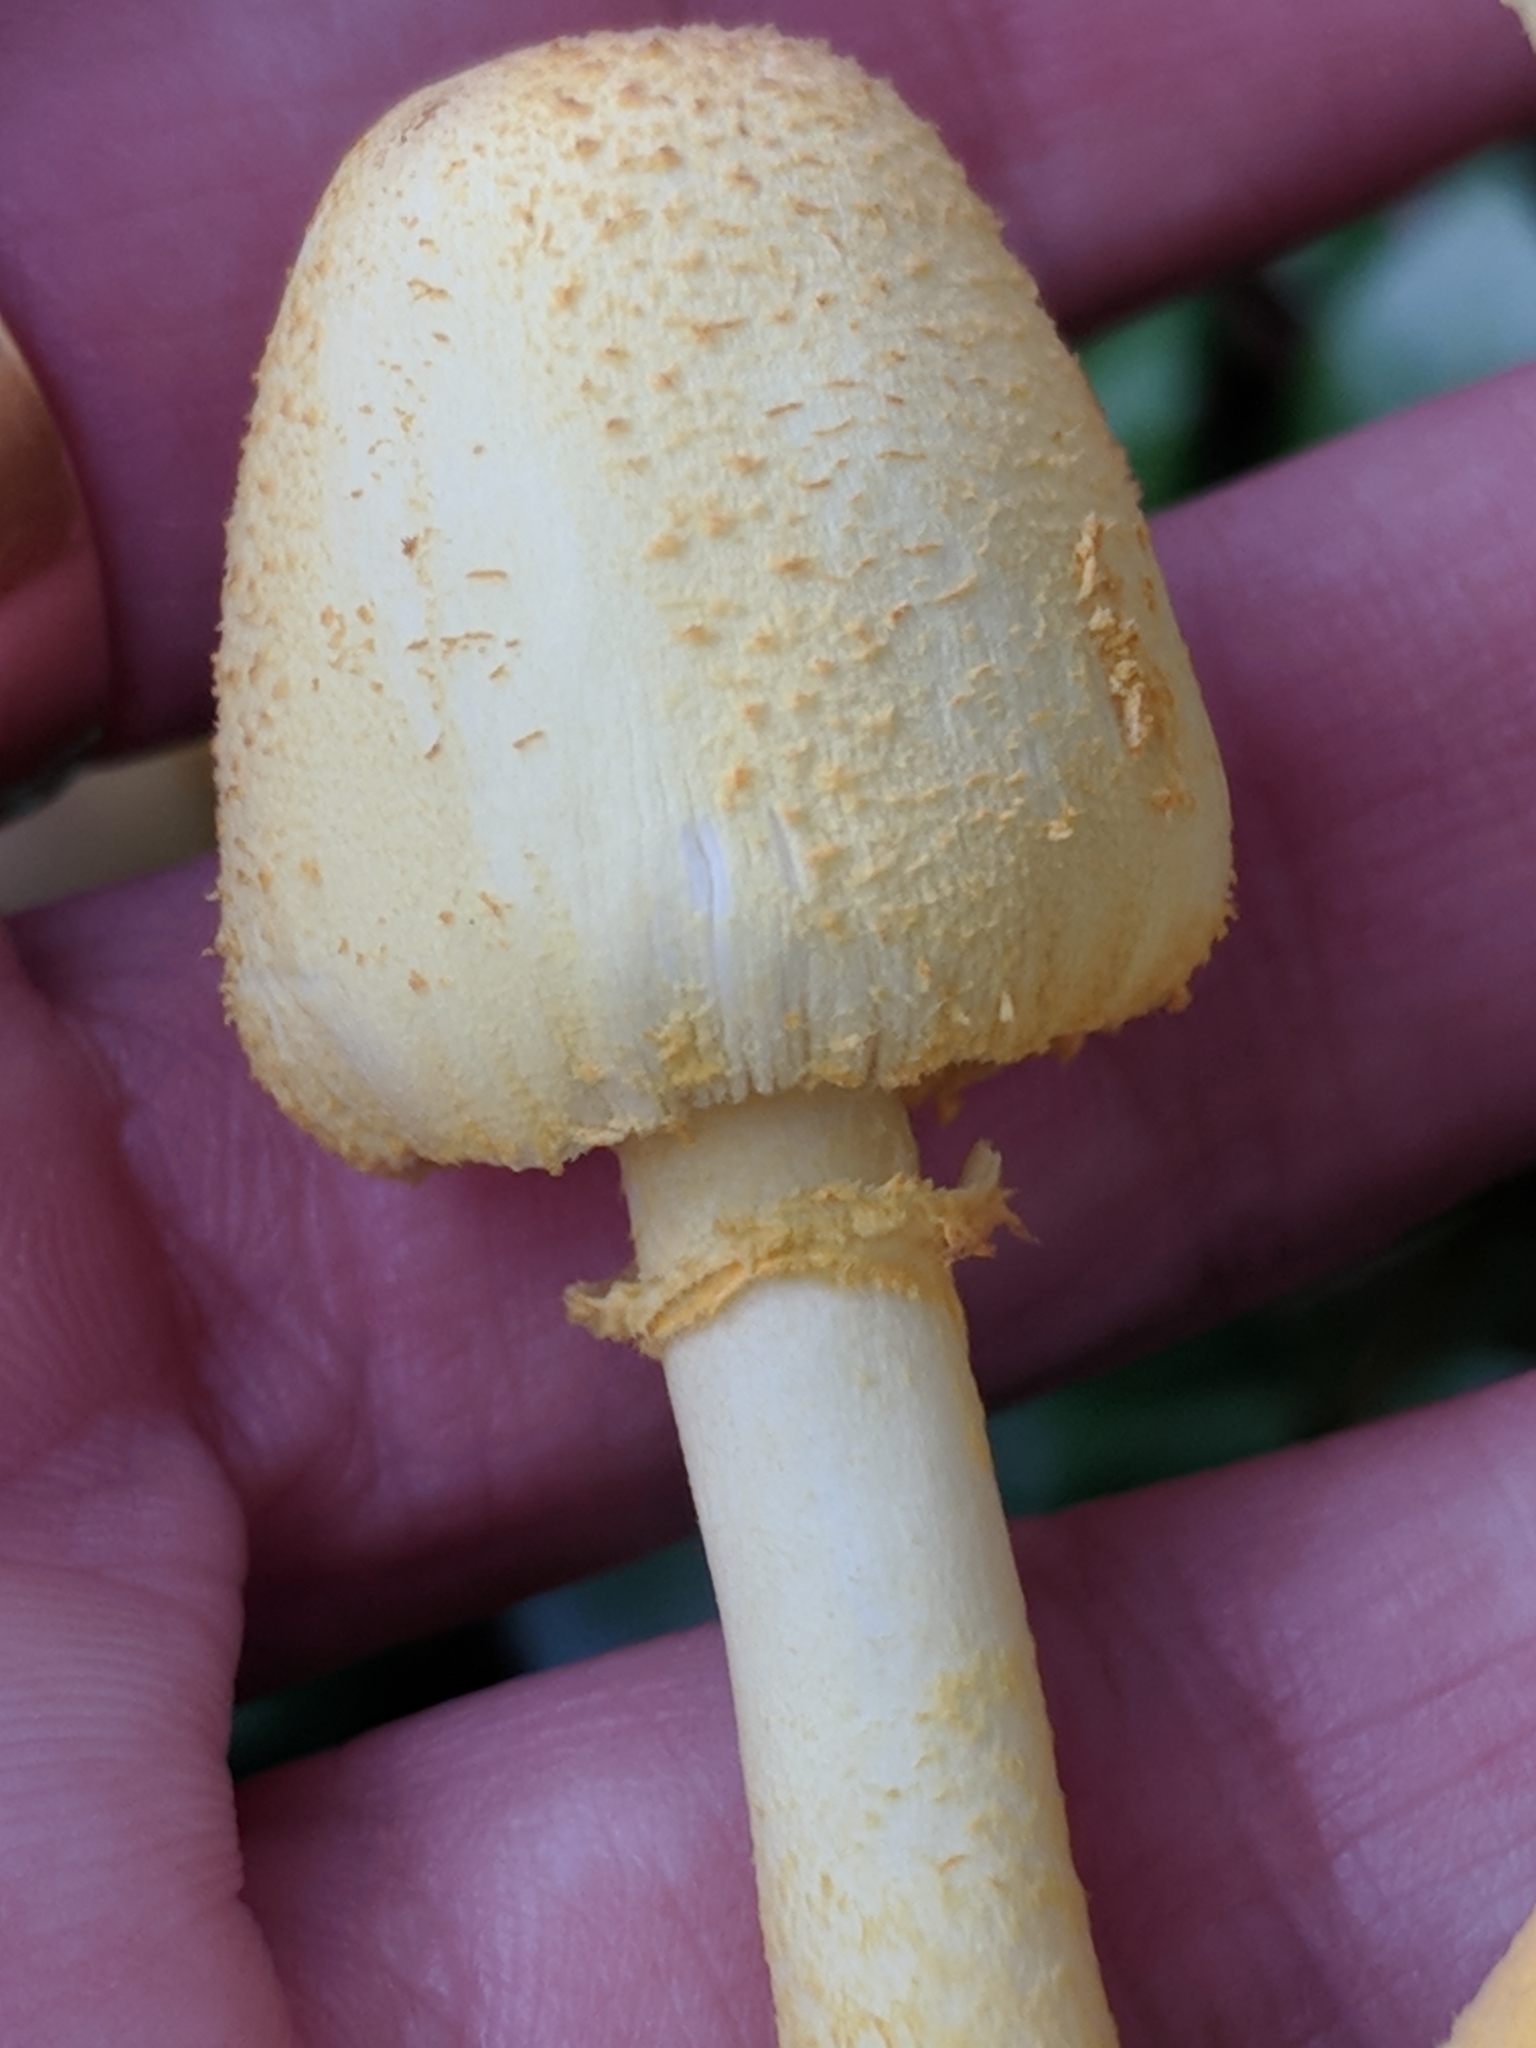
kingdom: Fungi
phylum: Basidiomycota
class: Agaricomycetes
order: Agaricales
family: Agaricaceae
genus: Leucocoprinus
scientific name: Leucocoprinus birnbaumii
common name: Plantpot dapperling
